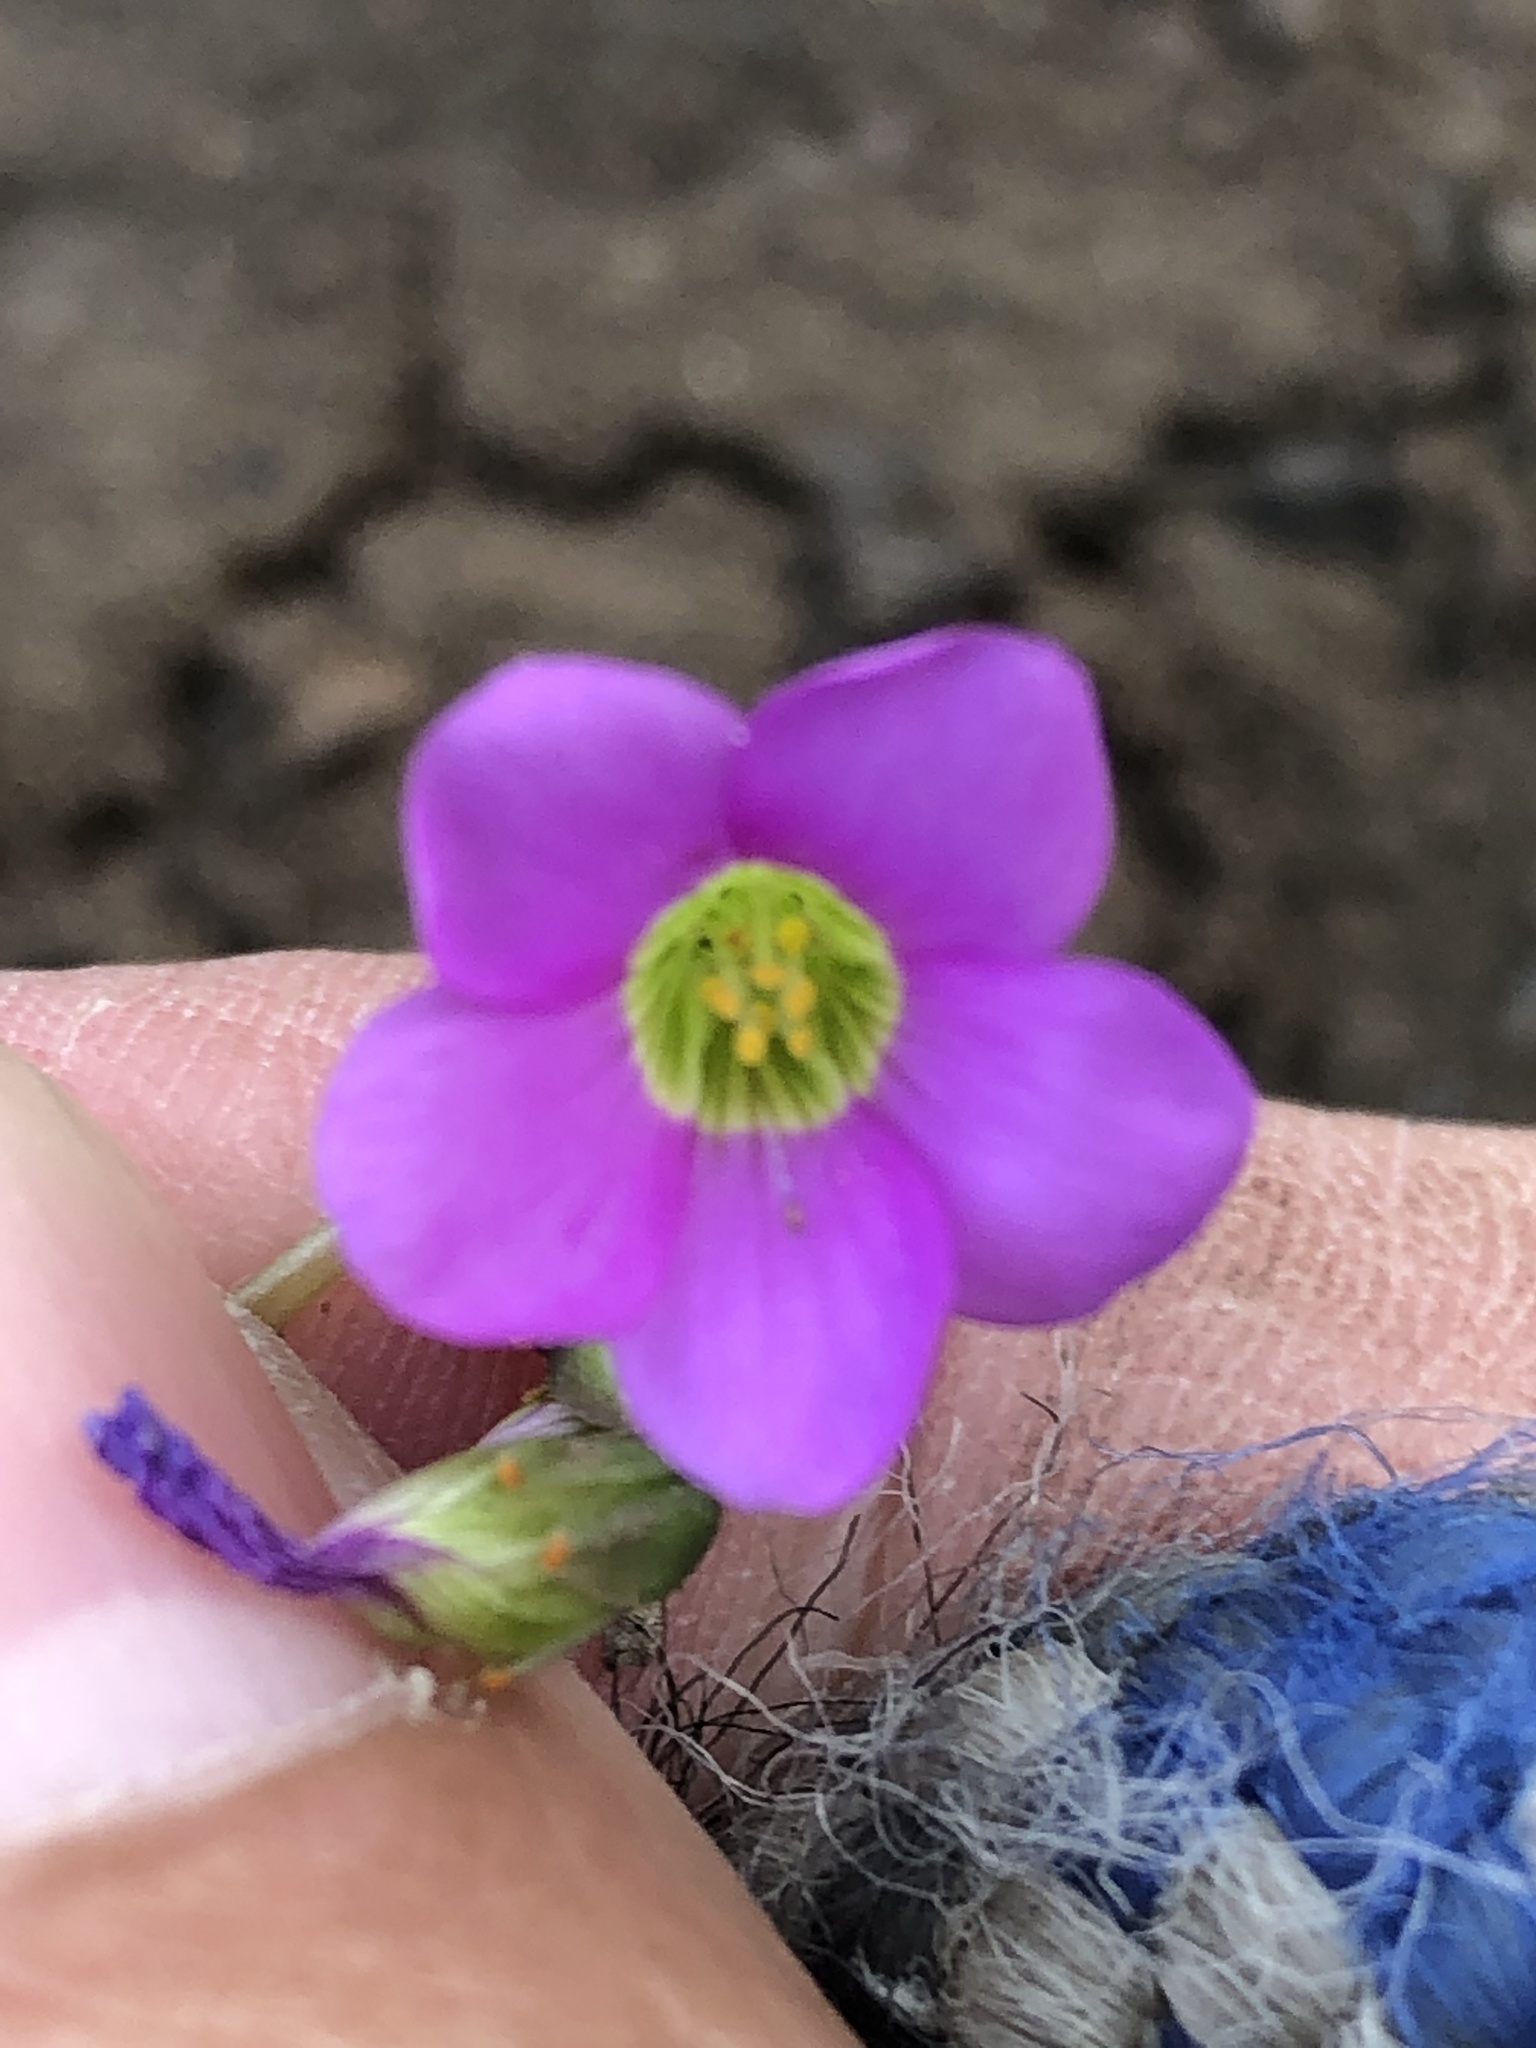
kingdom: Plantae
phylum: Tracheophyta
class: Magnoliopsida
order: Oxalidales
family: Oxalidaceae
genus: Oxalis
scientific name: Oxalis latifolia
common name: Garden pink-sorrel
